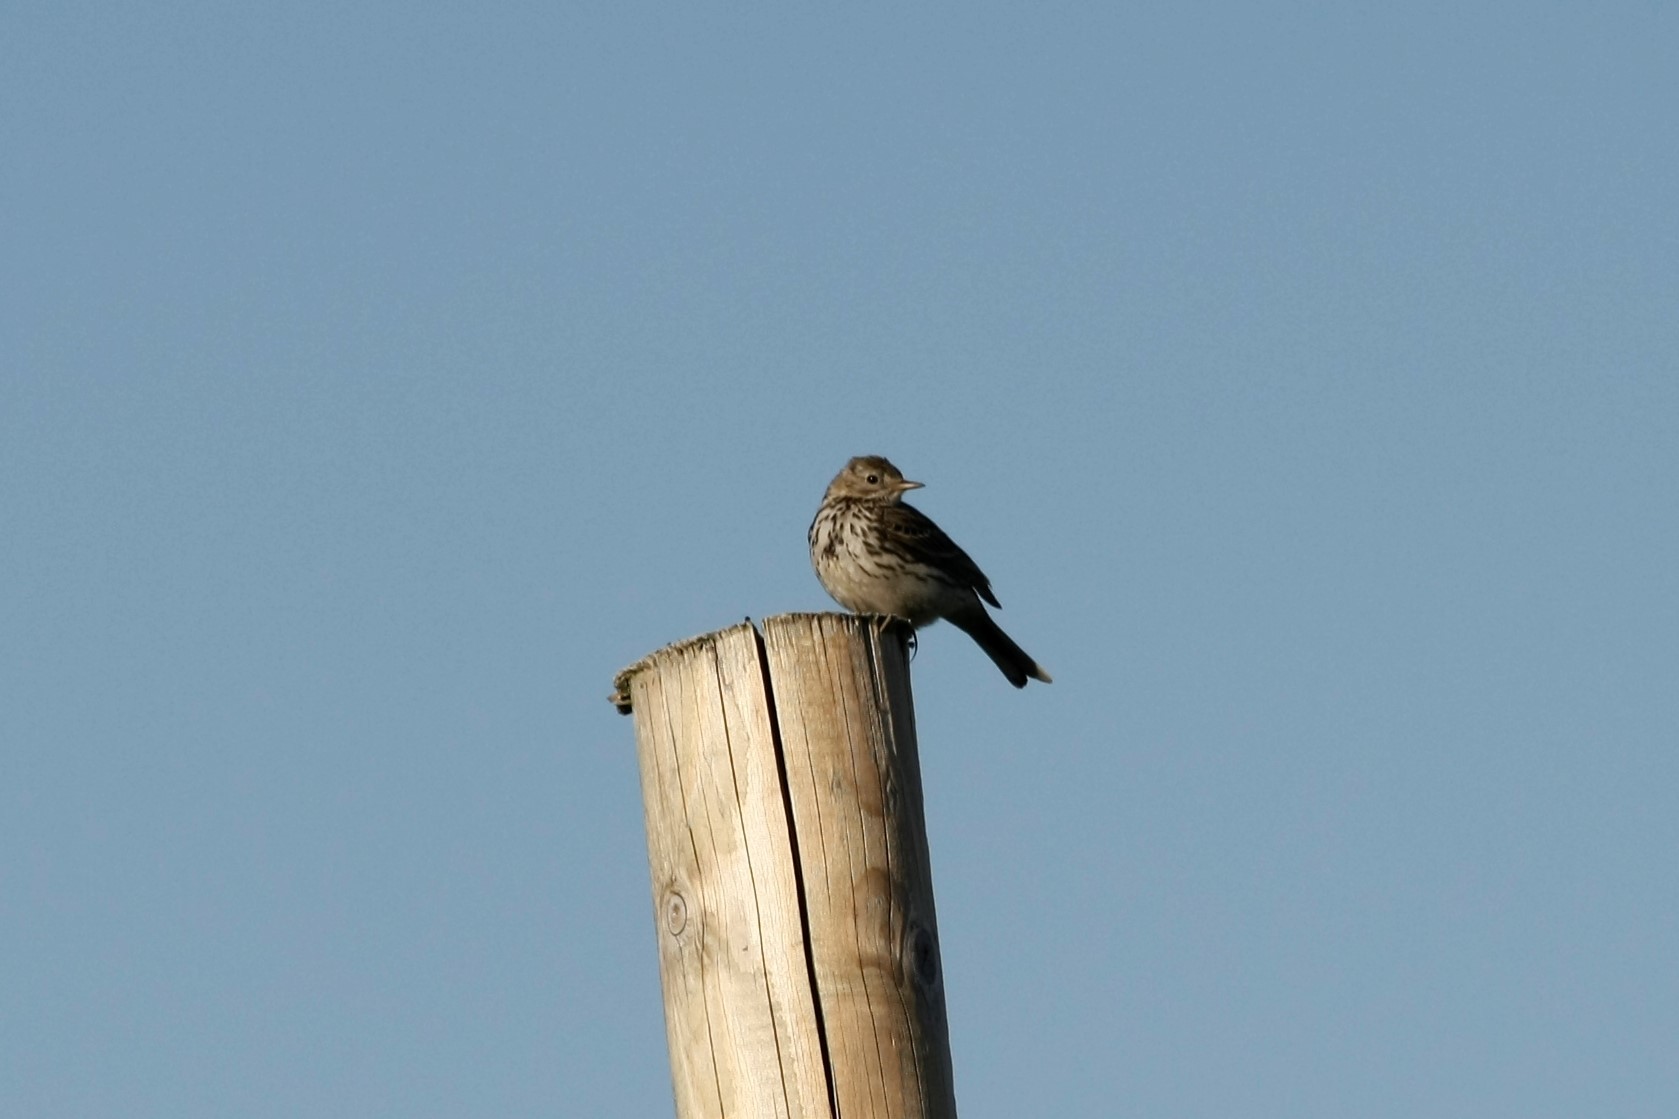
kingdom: Animalia
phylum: Chordata
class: Aves
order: Passeriformes
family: Motacillidae
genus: Anthus
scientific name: Anthus pratensis
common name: Meadow pipit
